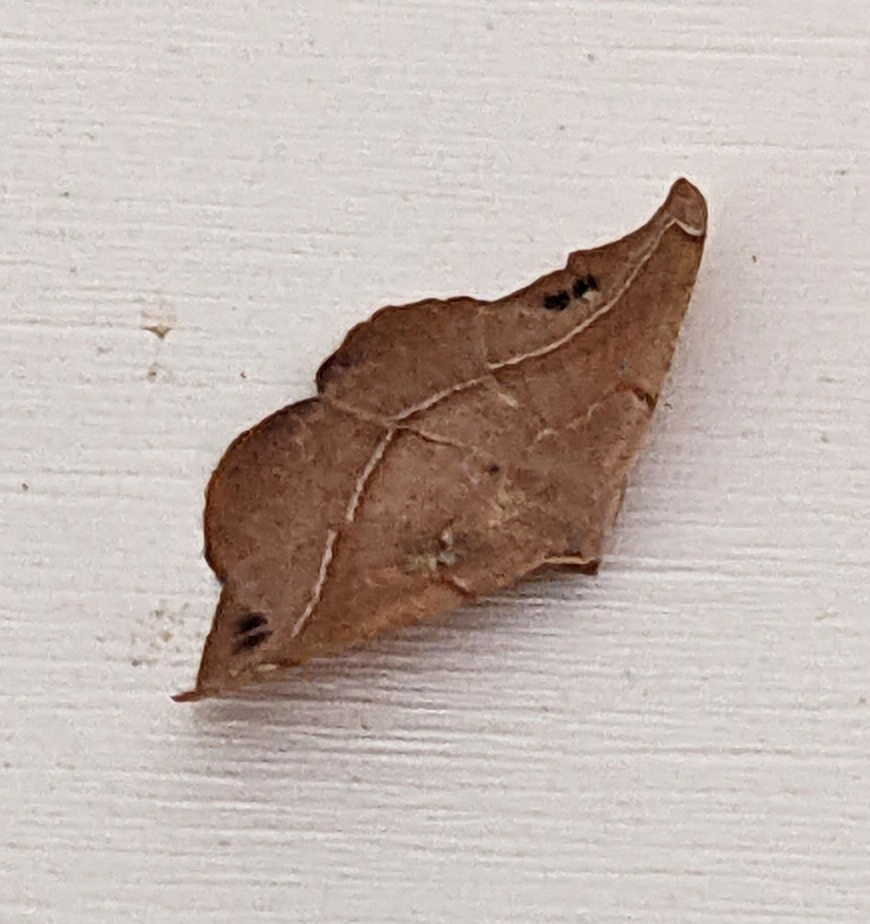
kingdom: Animalia
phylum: Arthropoda
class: Insecta
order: Lepidoptera
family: Geometridae
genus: Patalene
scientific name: Patalene olyzonaria
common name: Juniper geometer moth
